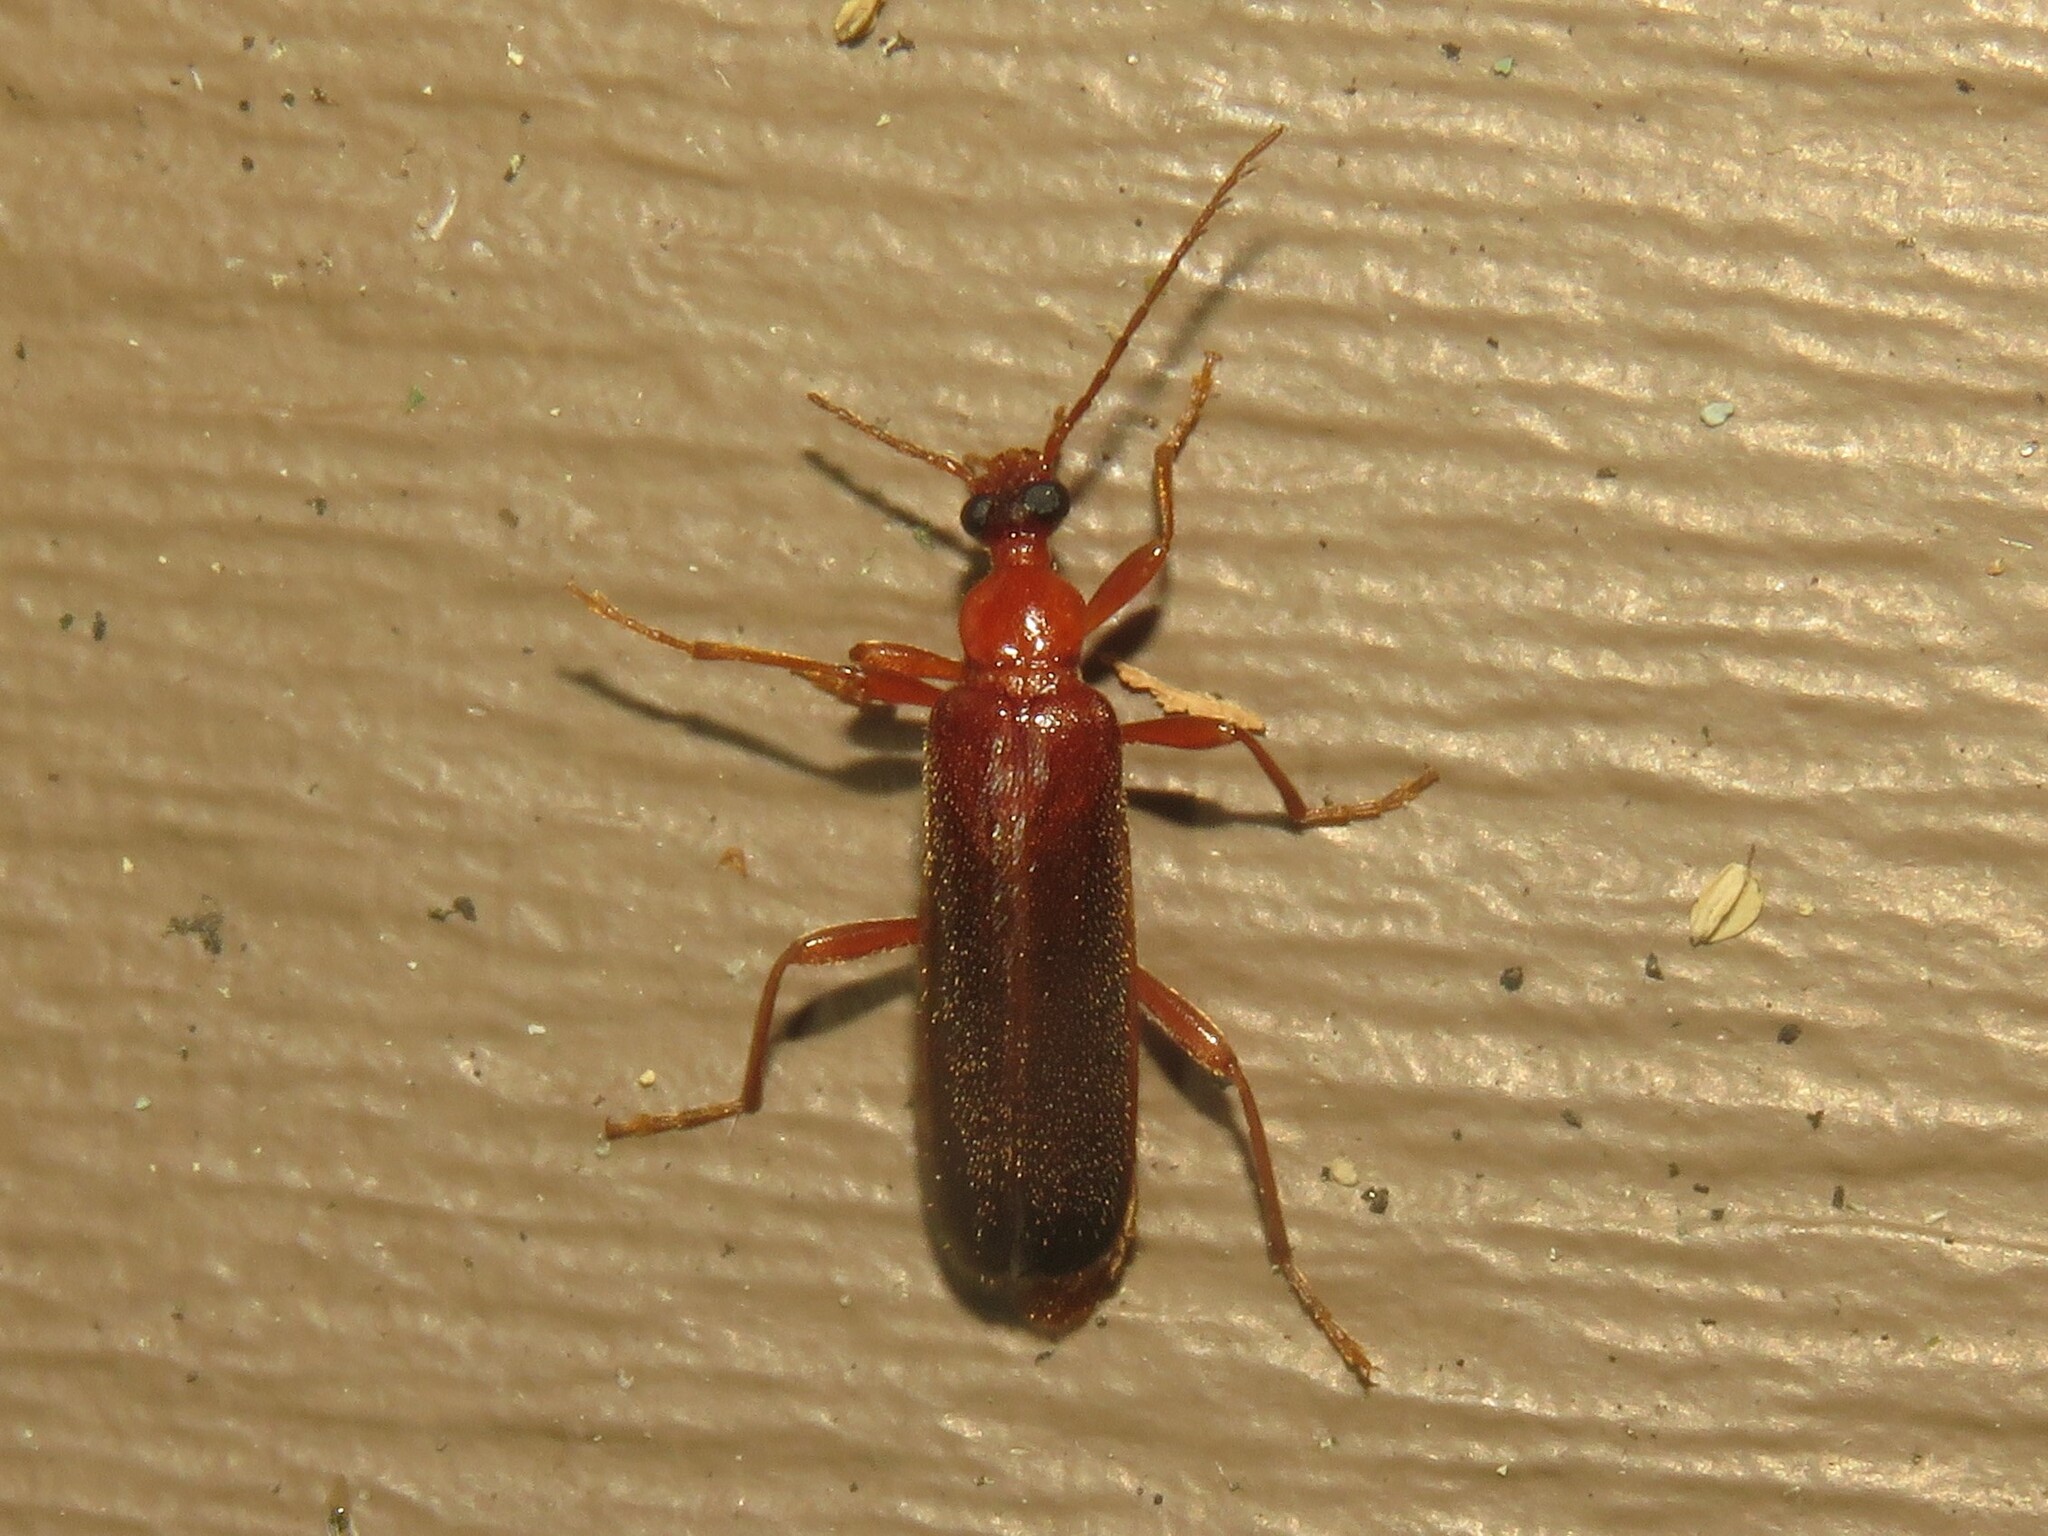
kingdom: Animalia
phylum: Arthropoda
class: Insecta
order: Coleoptera
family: Pyrochroidae
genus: Dendroides
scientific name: Dendroides concolor
